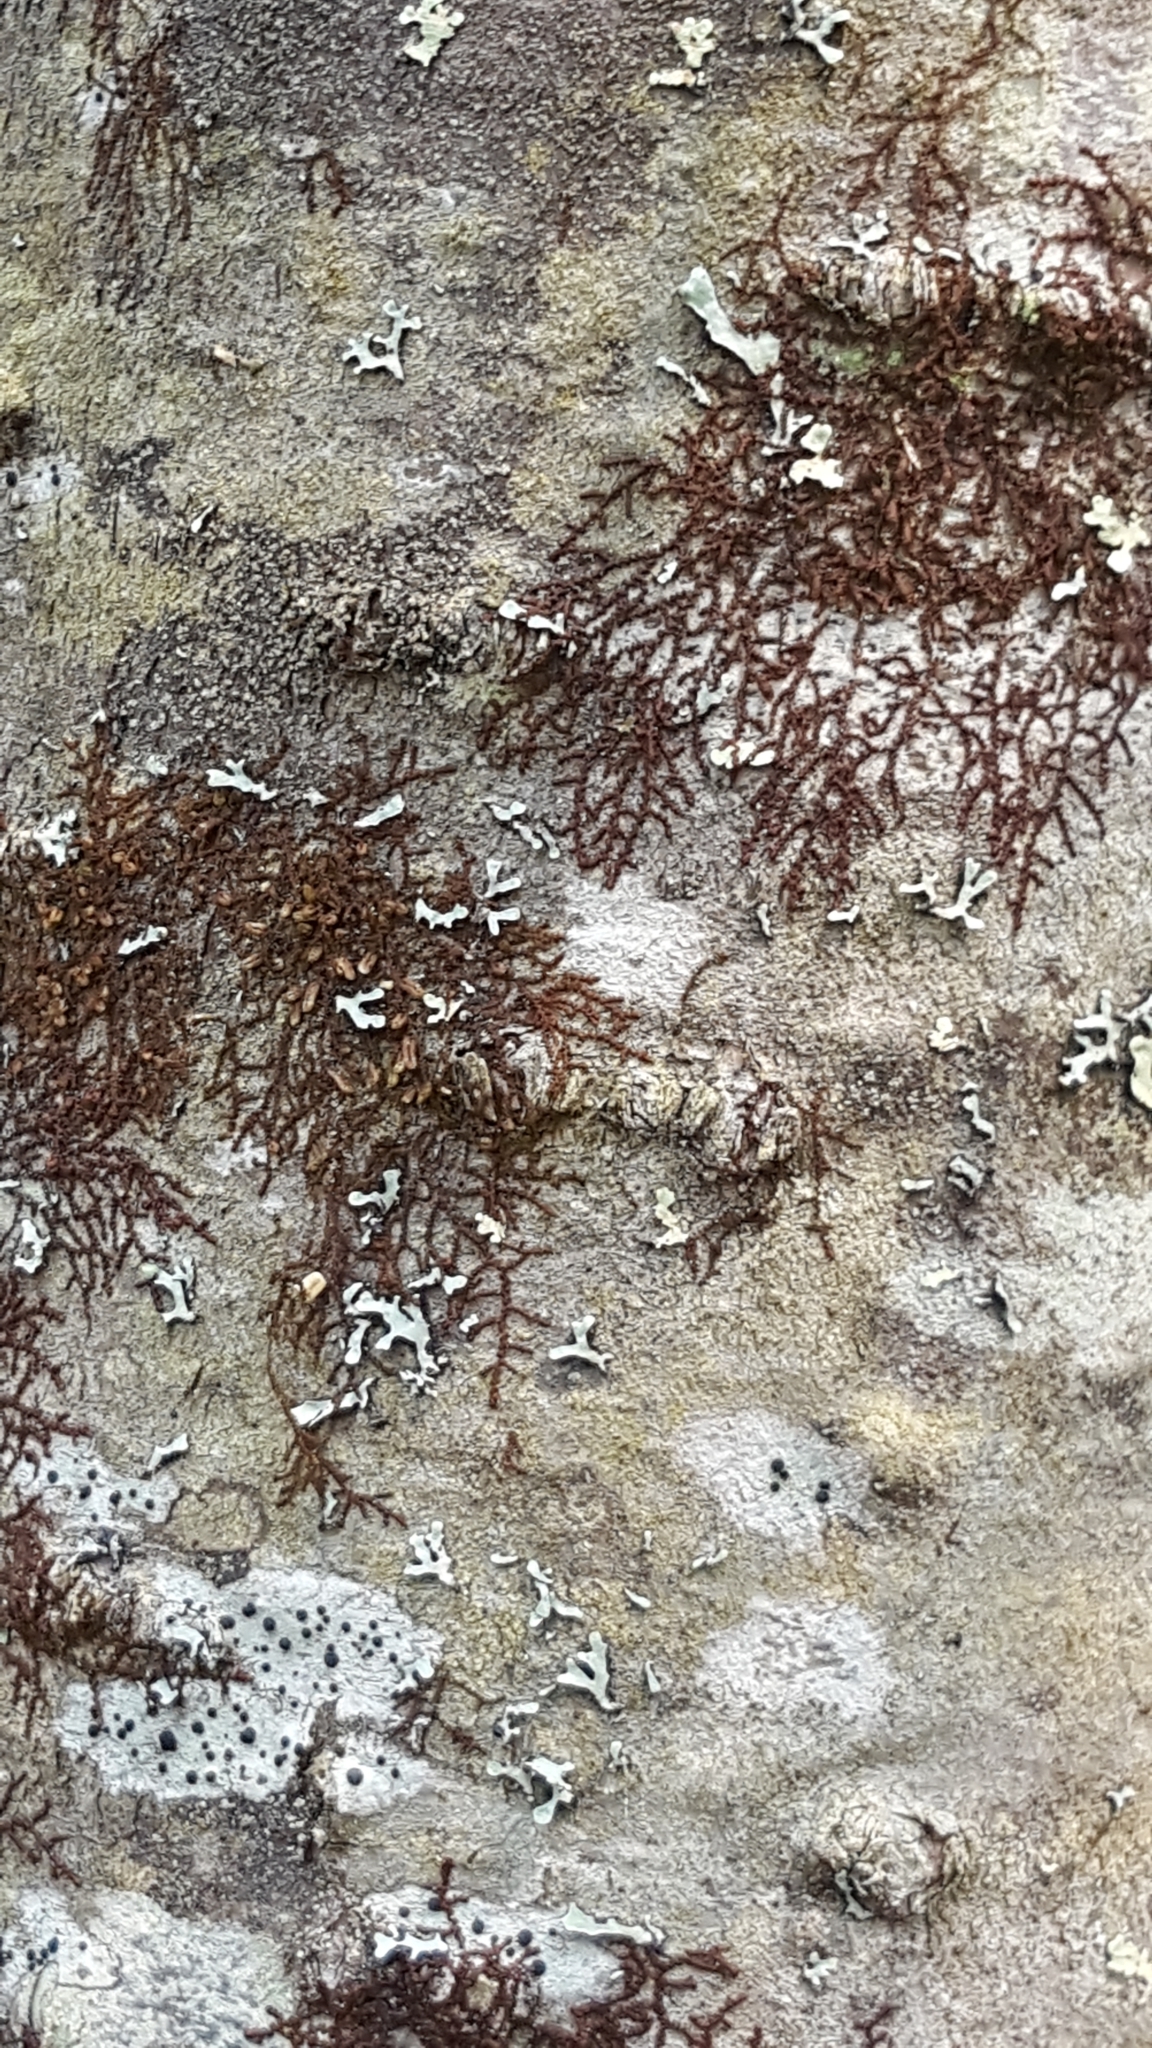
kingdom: Plantae
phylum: Marchantiophyta
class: Jungermanniopsida
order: Porellales
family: Frullaniaceae
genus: Frullania
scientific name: Frullania eboracensis
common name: New york scalewort
